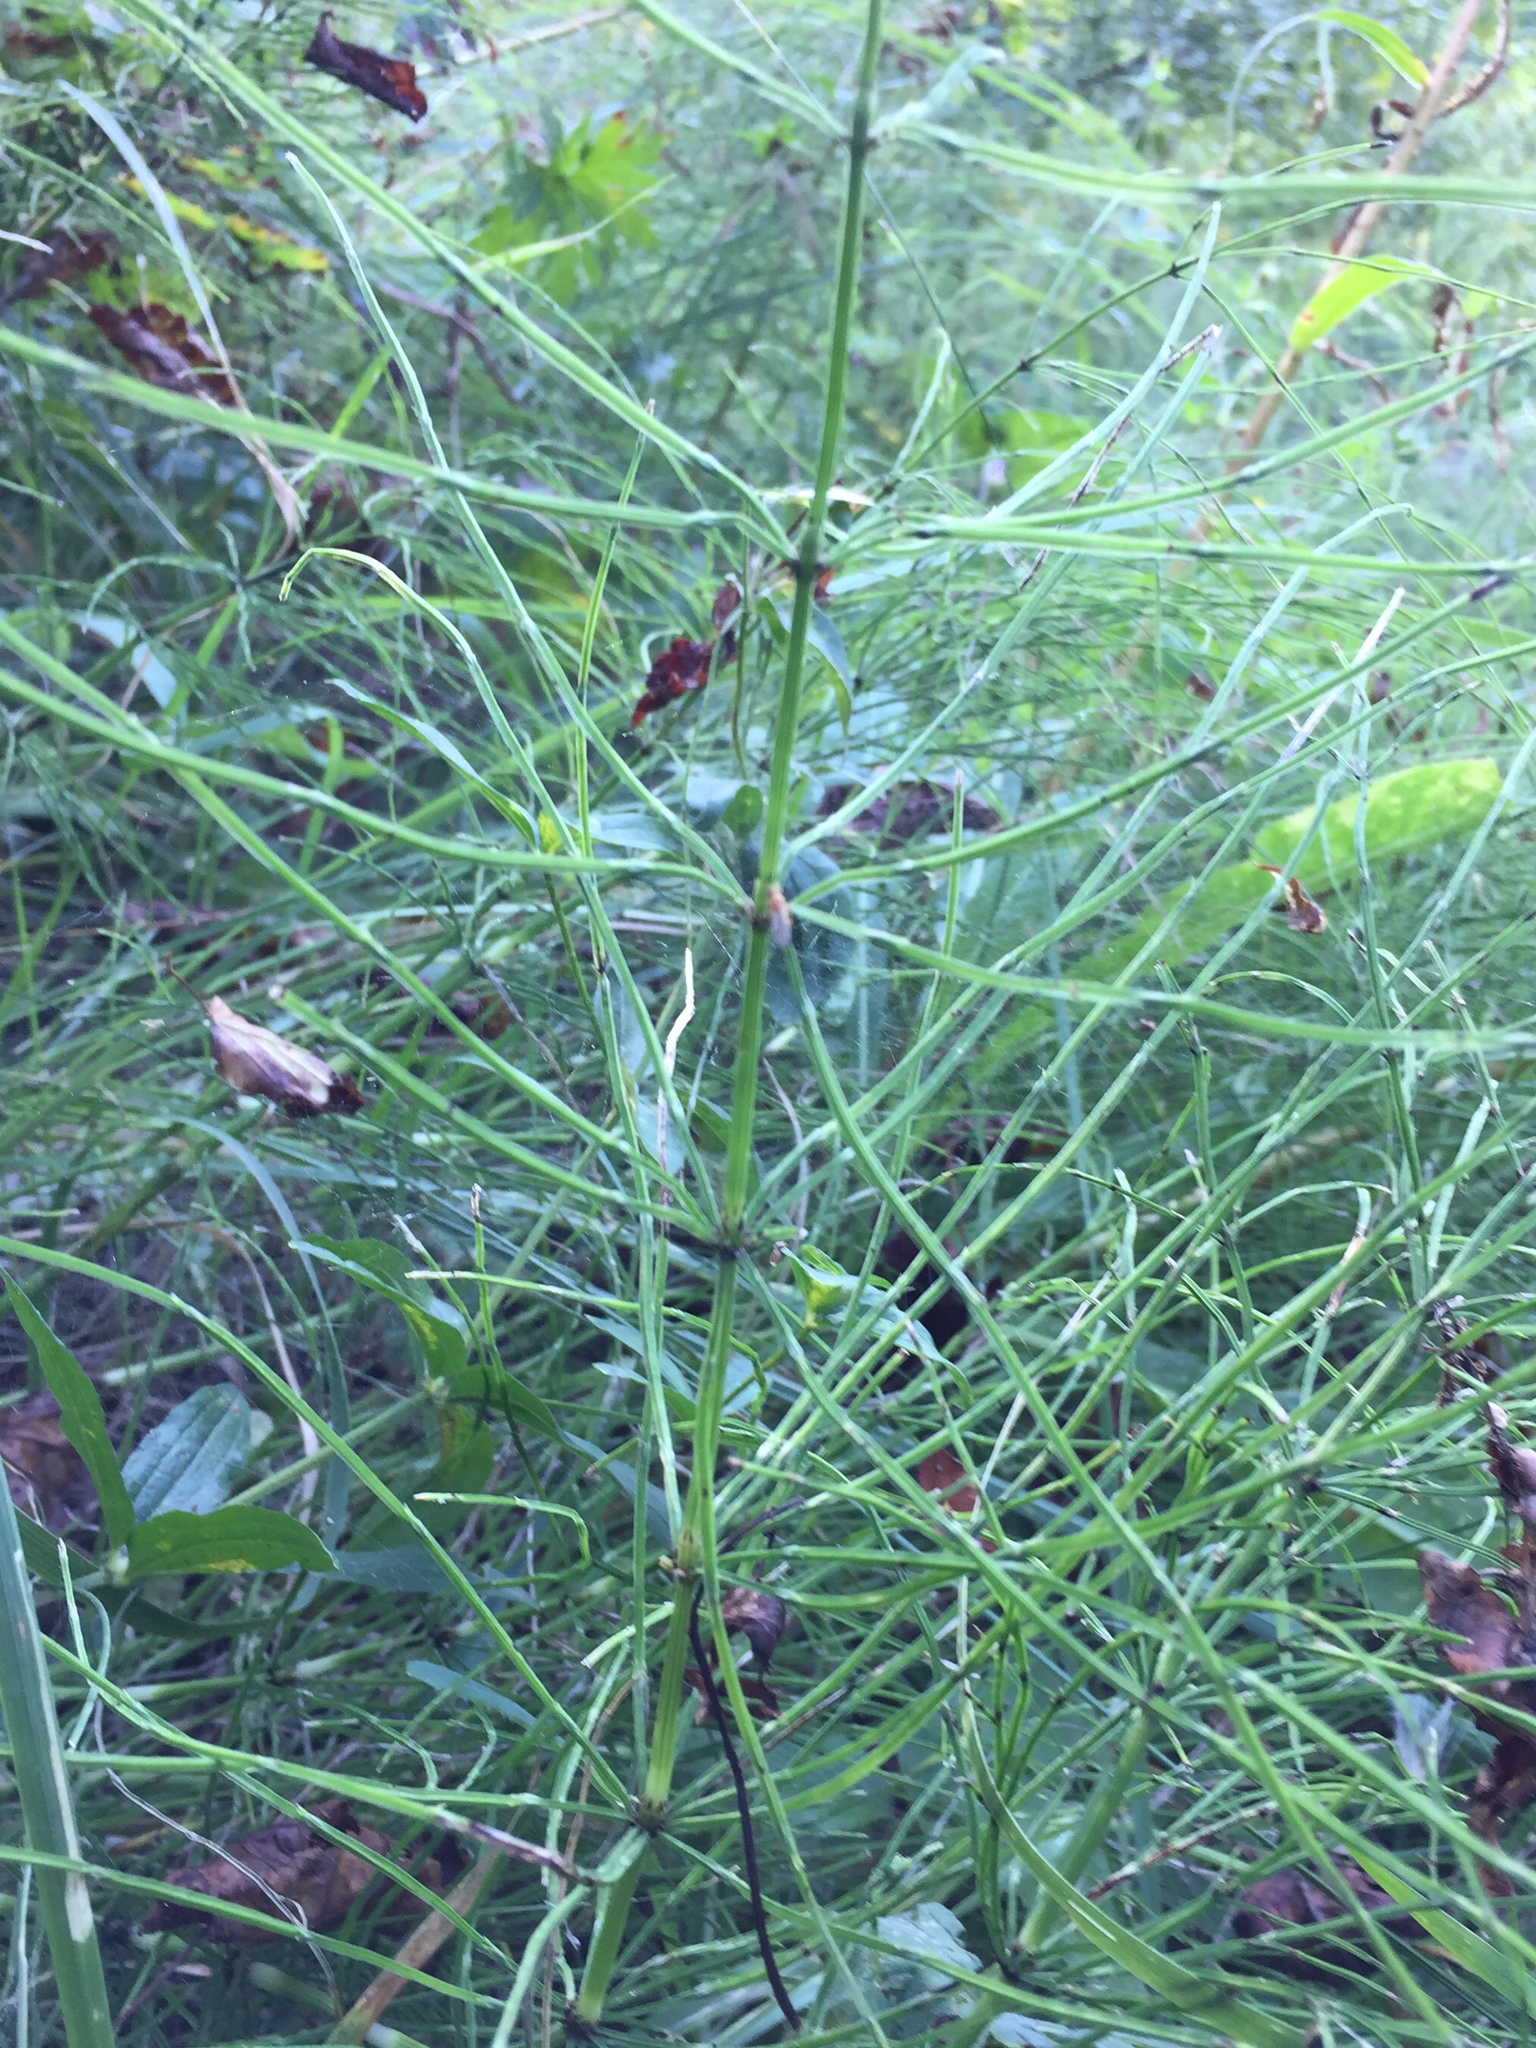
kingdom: Plantae
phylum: Tracheophyta
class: Polypodiopsida
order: Equisetales
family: Equisetaceae
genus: Equisetum
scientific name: Equisetum arvense
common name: Field horsetail
